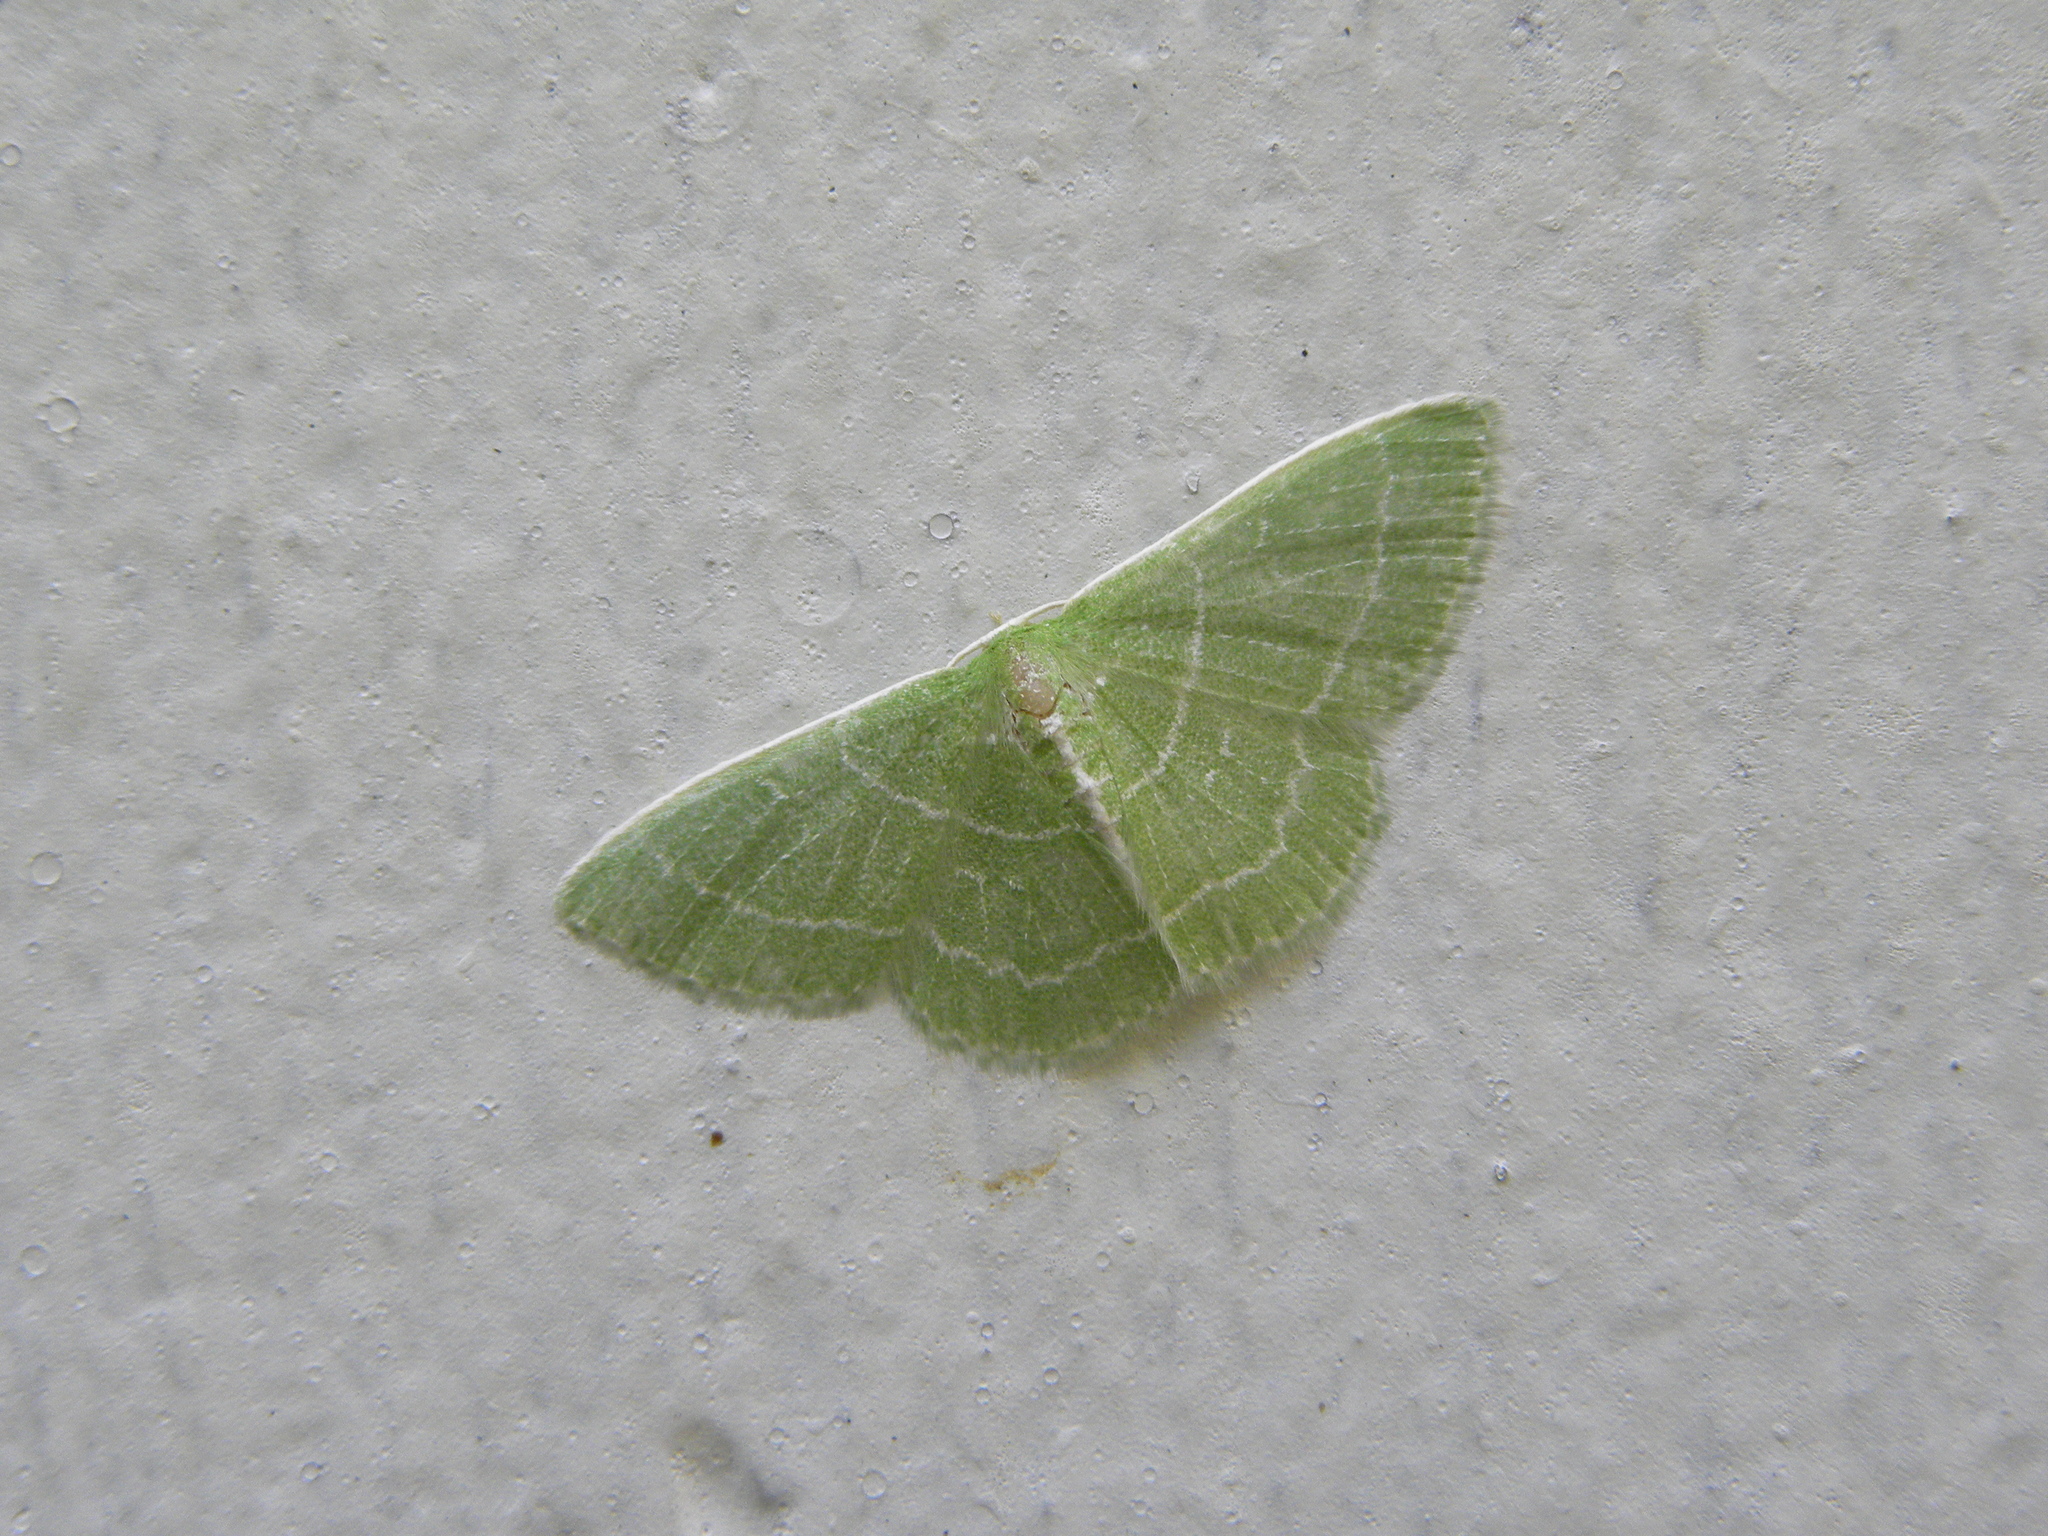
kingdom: Animalia
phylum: Arthropoda
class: Insecta
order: Lepidoptera
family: Geometridae
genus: Synchlora
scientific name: Synchlora aerata
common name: Wavy-lined emerald
